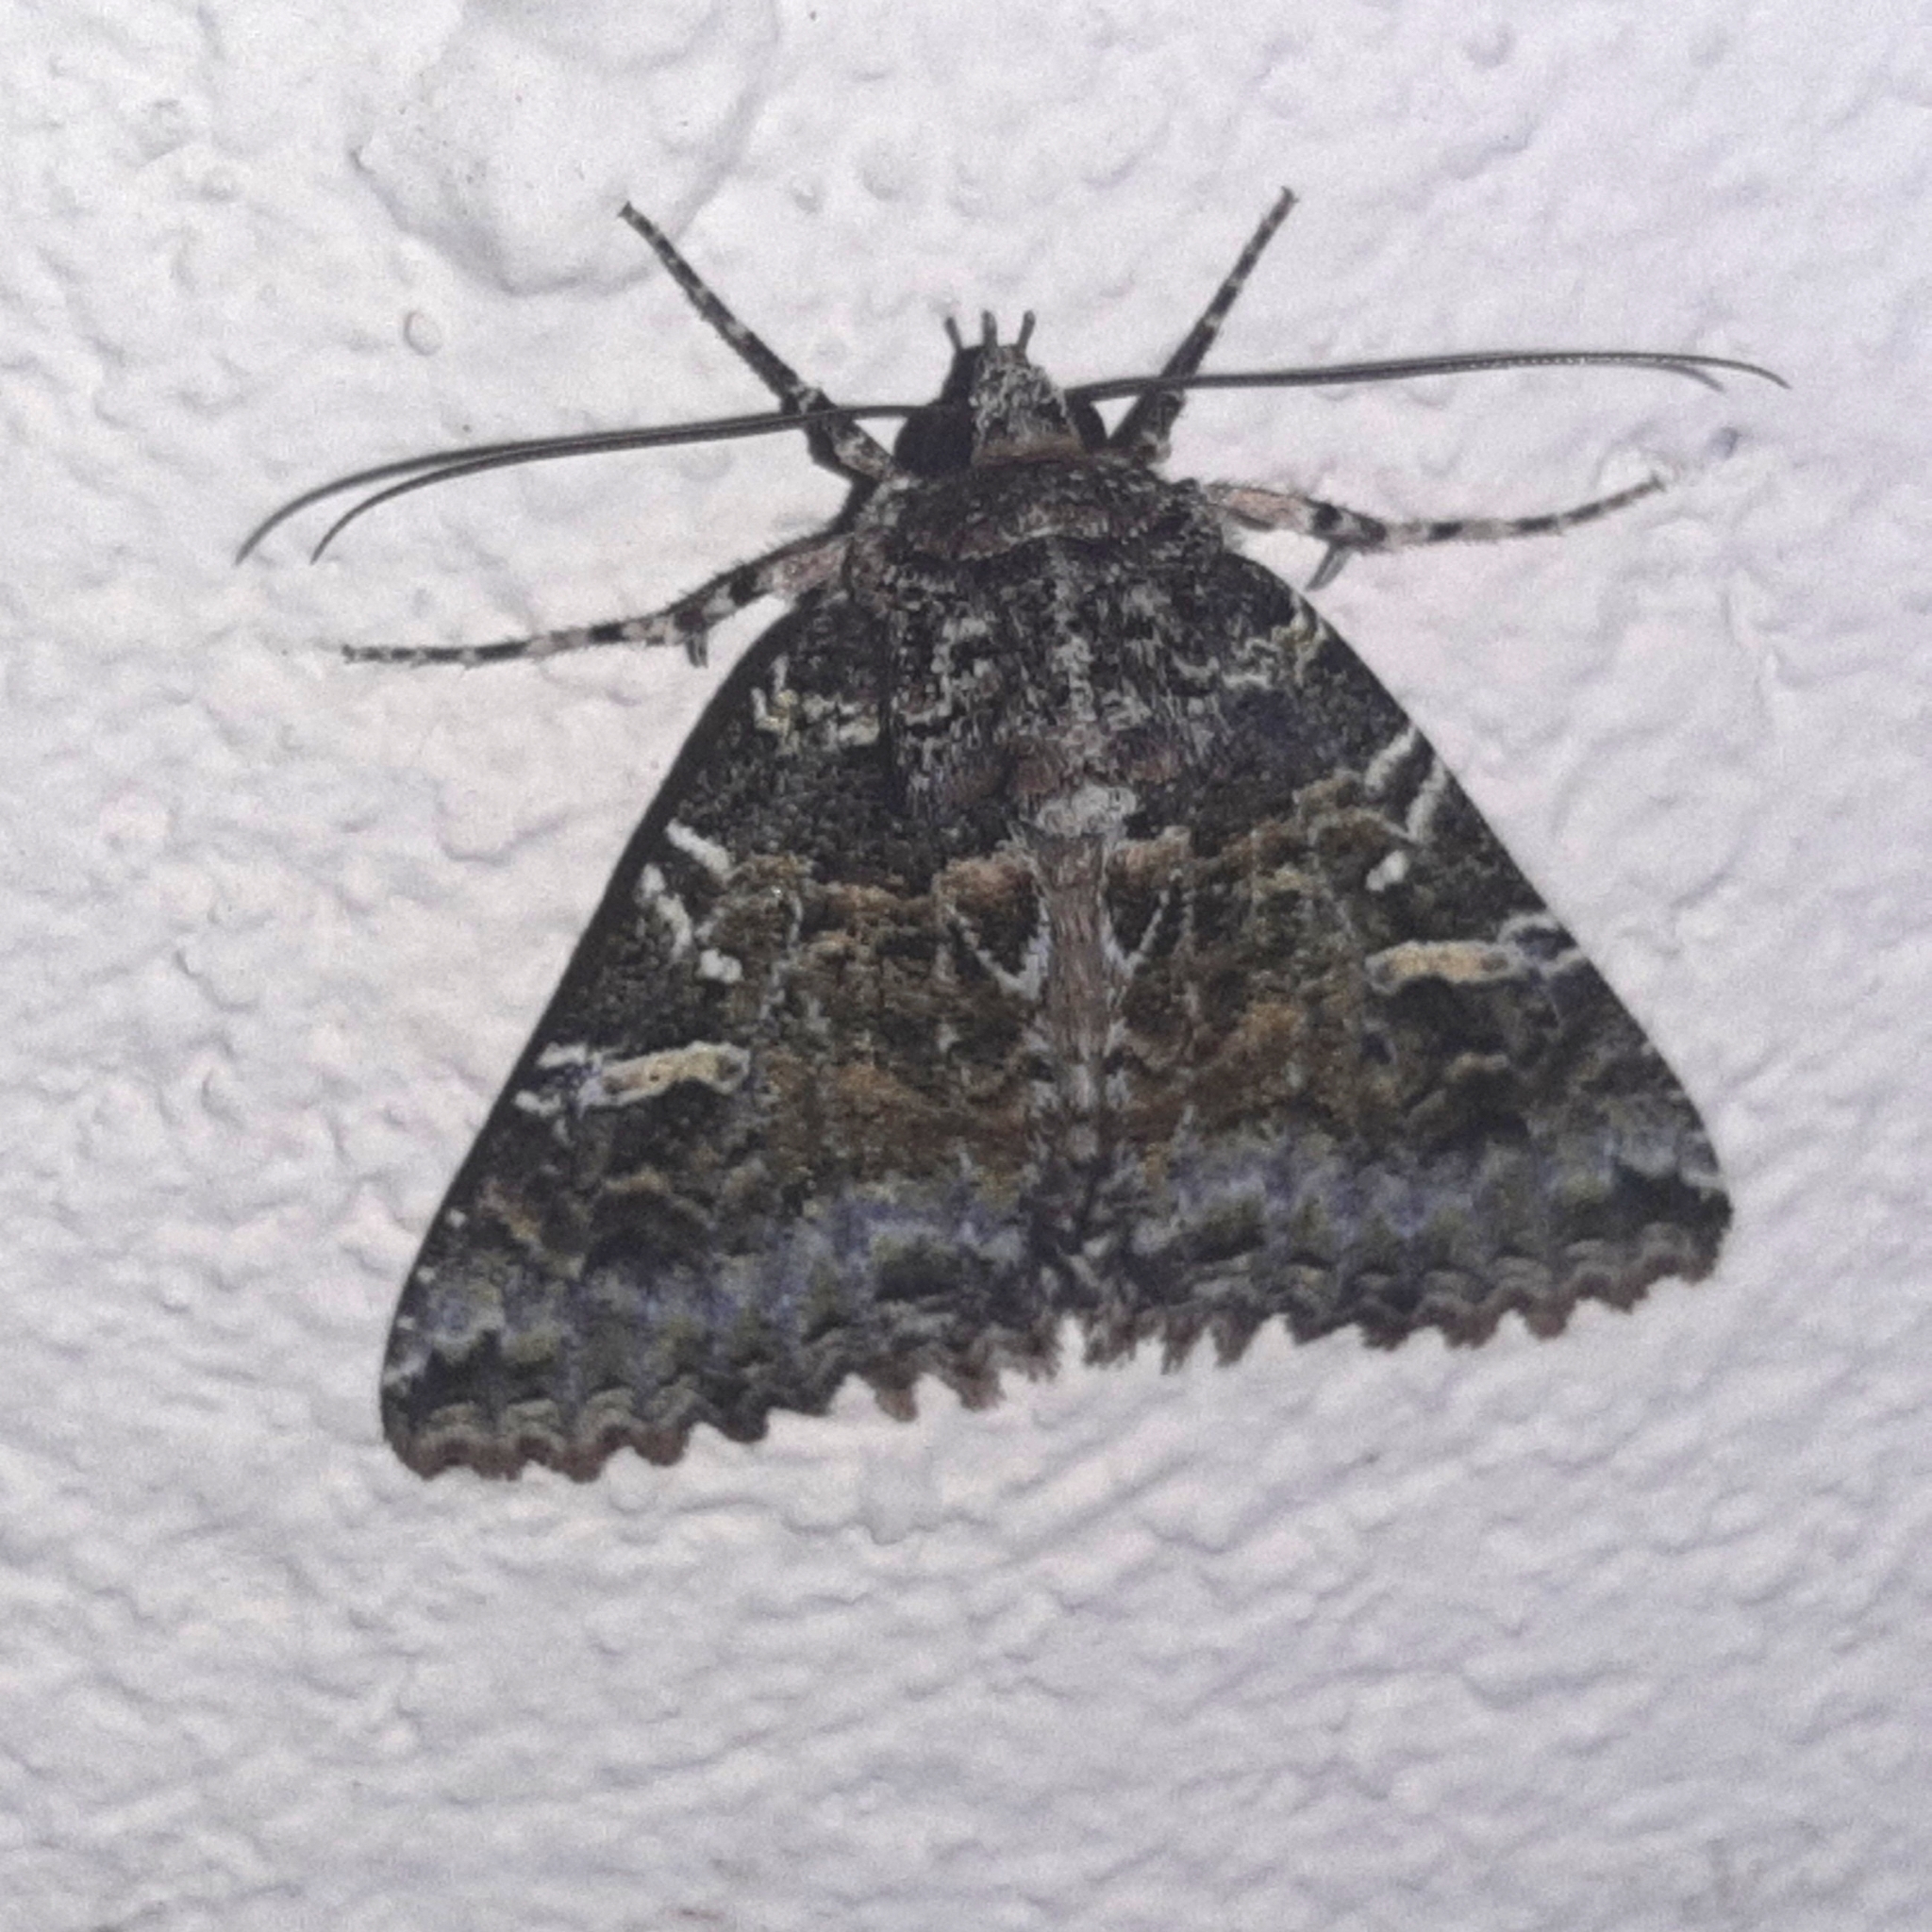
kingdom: Animalia
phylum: Arthropoda
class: Insecta
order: Lepidoptera
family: Erebidae
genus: Safidia
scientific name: Safidia druceria
